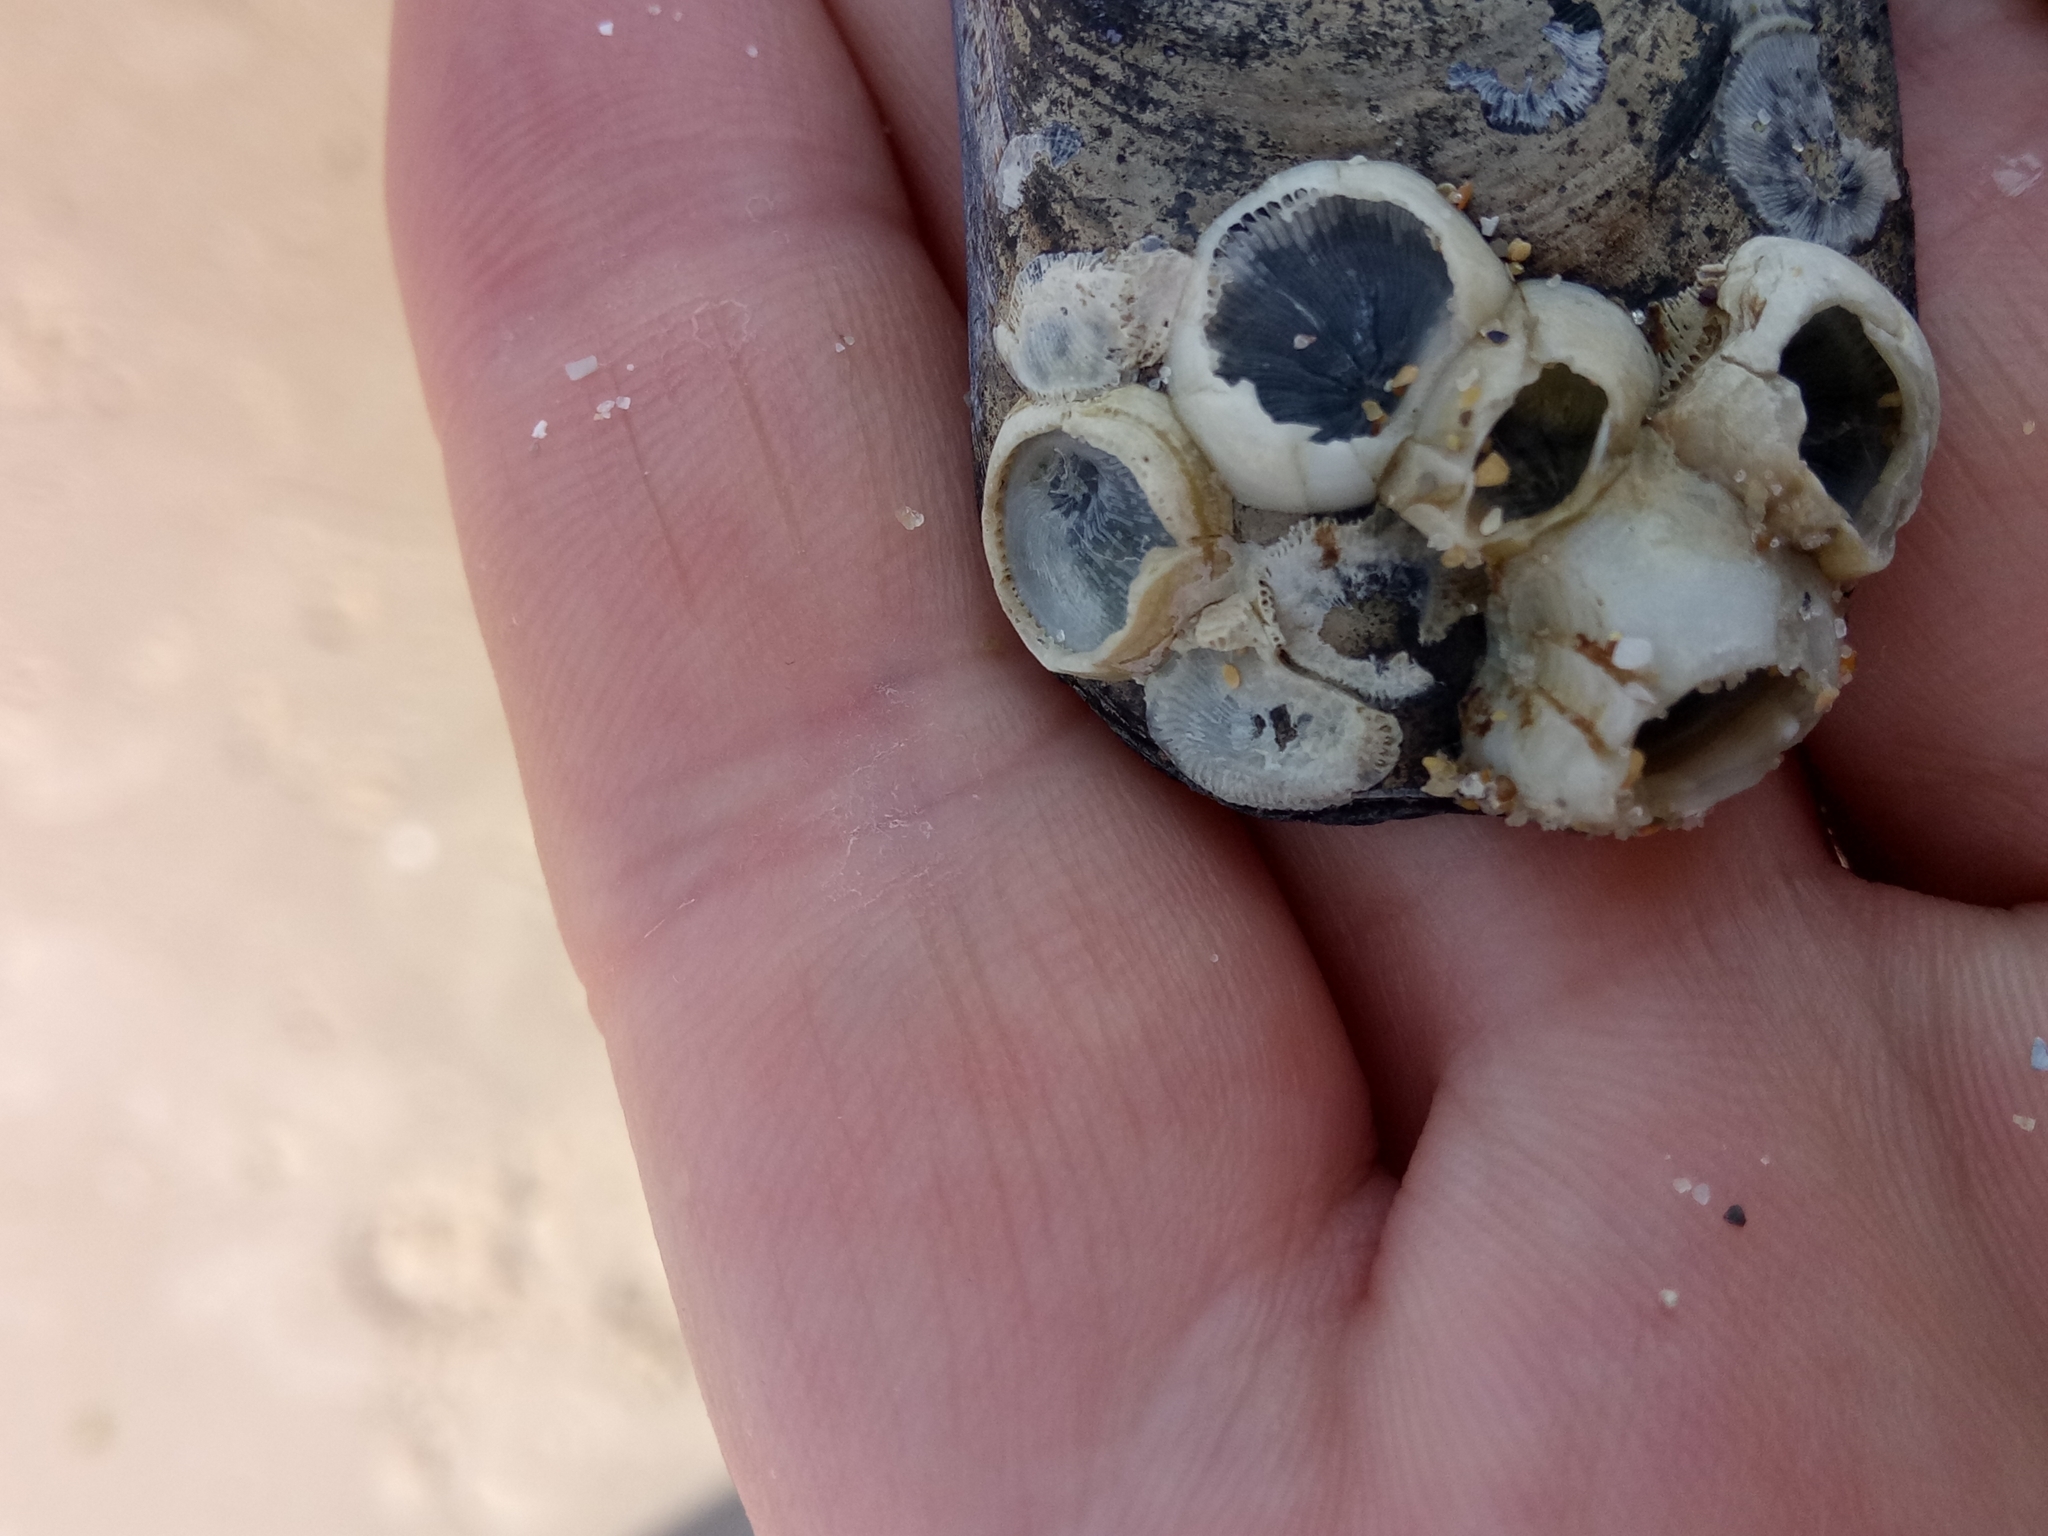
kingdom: Animalia
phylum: Arthropoda
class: Maxillopoda
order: Sessilia
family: Balanidae
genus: Amphibalanus
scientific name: Amphibalanus improvisus
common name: Bay barnacle
